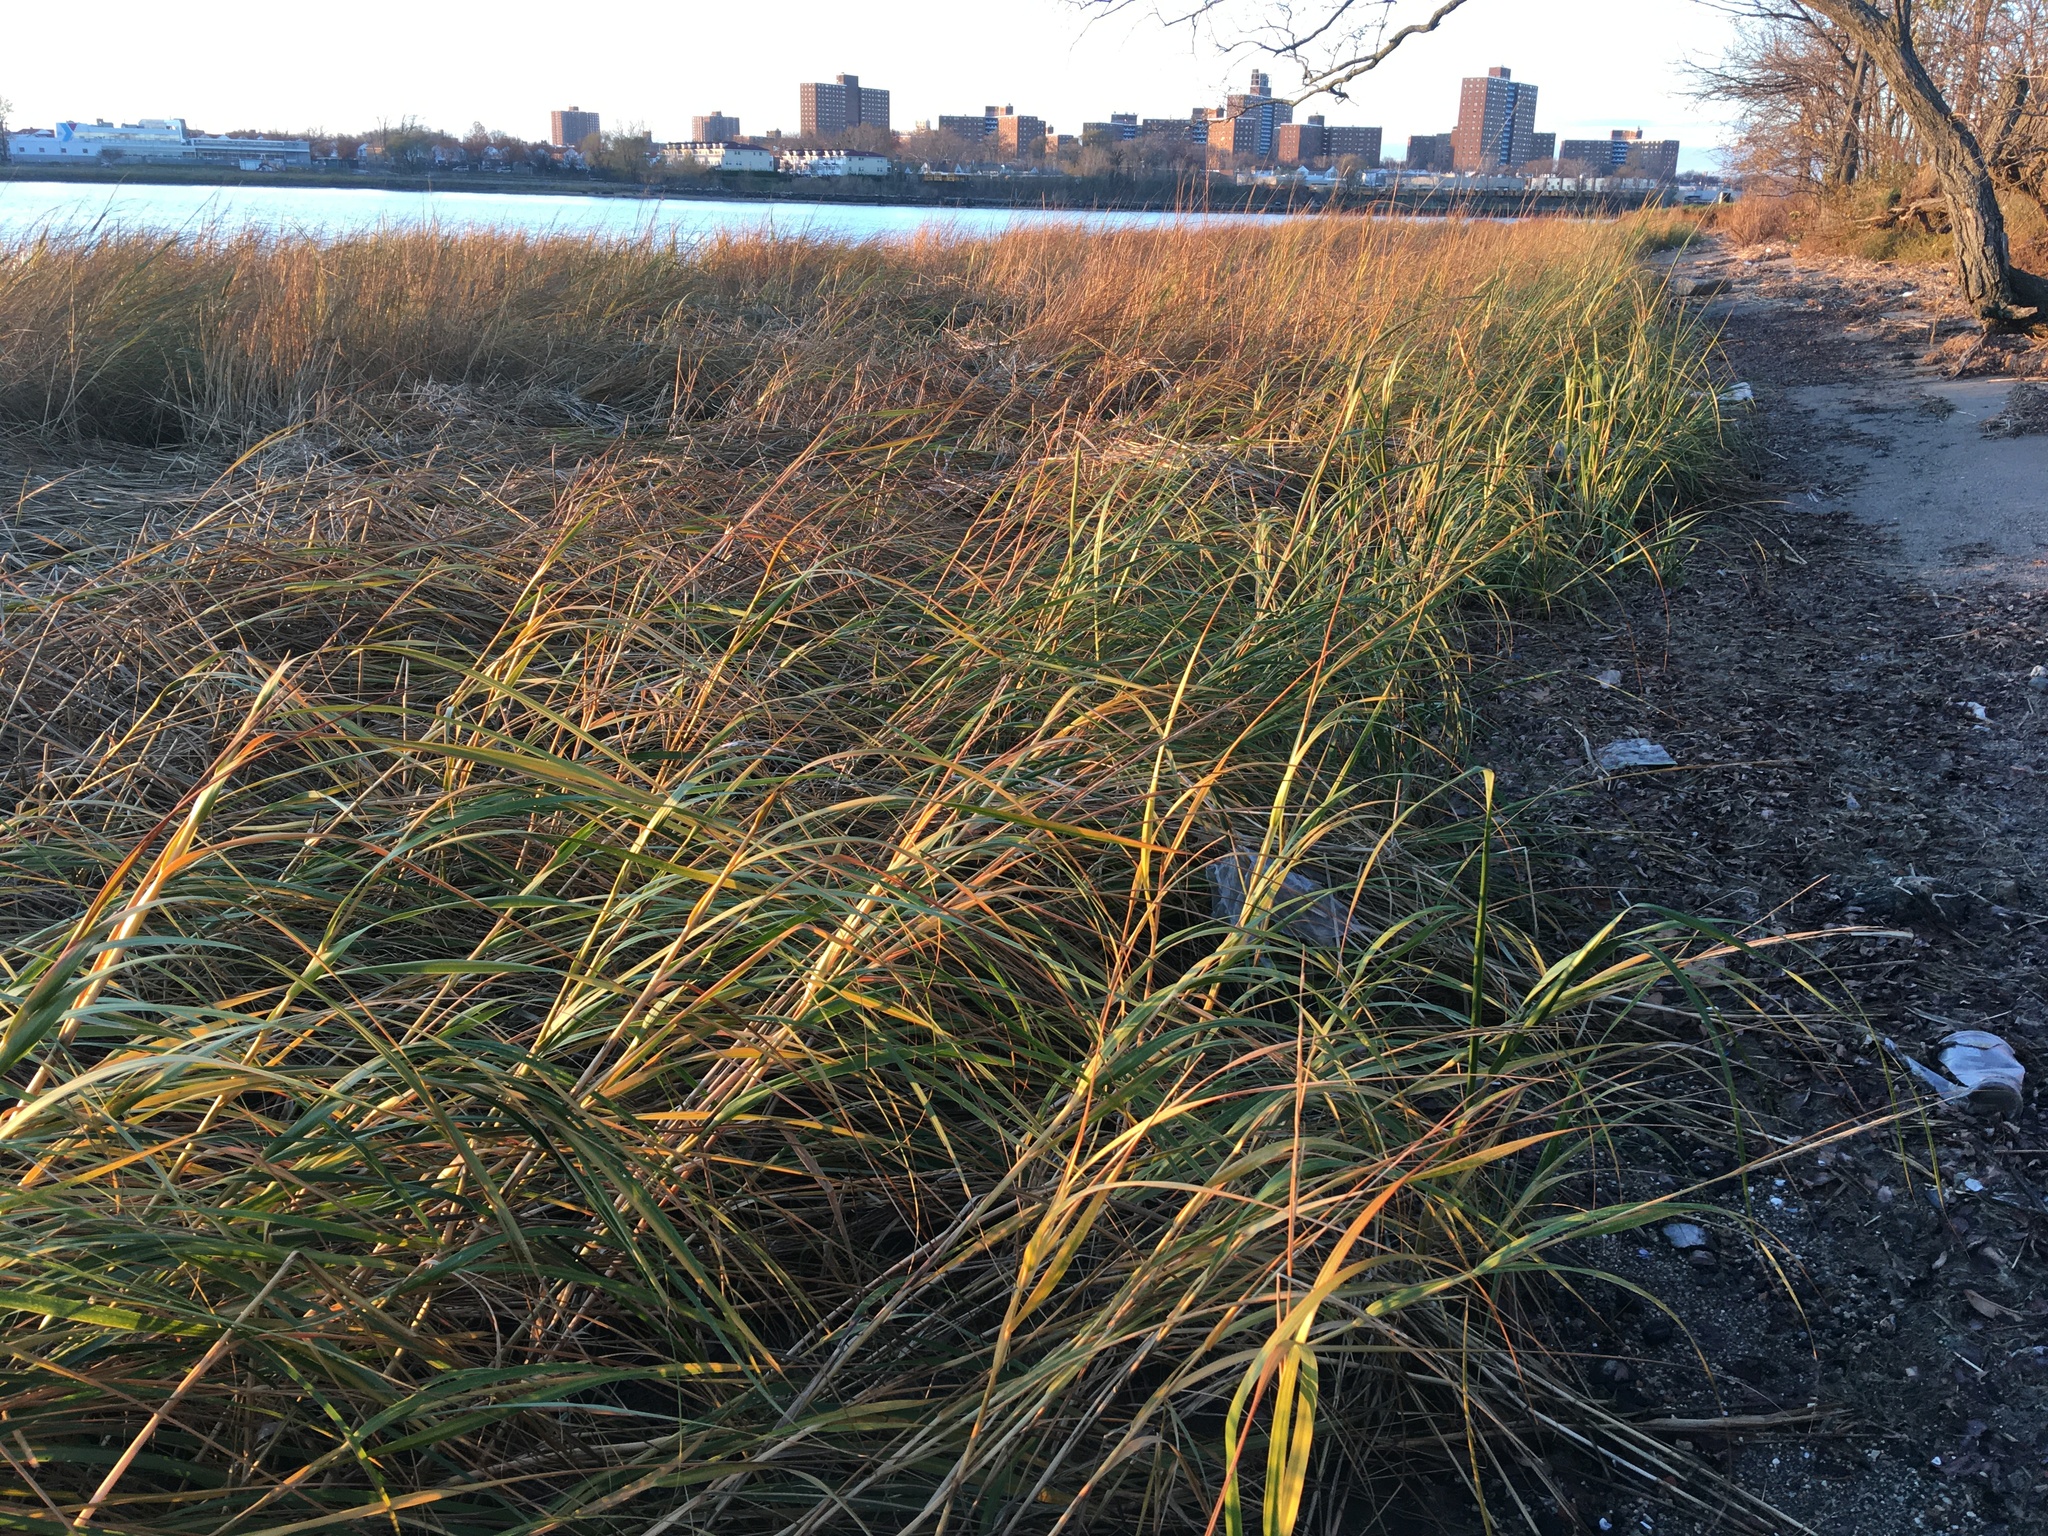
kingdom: Plantae
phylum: Tracheophyta
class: Liliopsida
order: Poales
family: Poaceae
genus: Sporobolus
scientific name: Sporobolus alterniflorus
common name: Atlantic cordgrass
